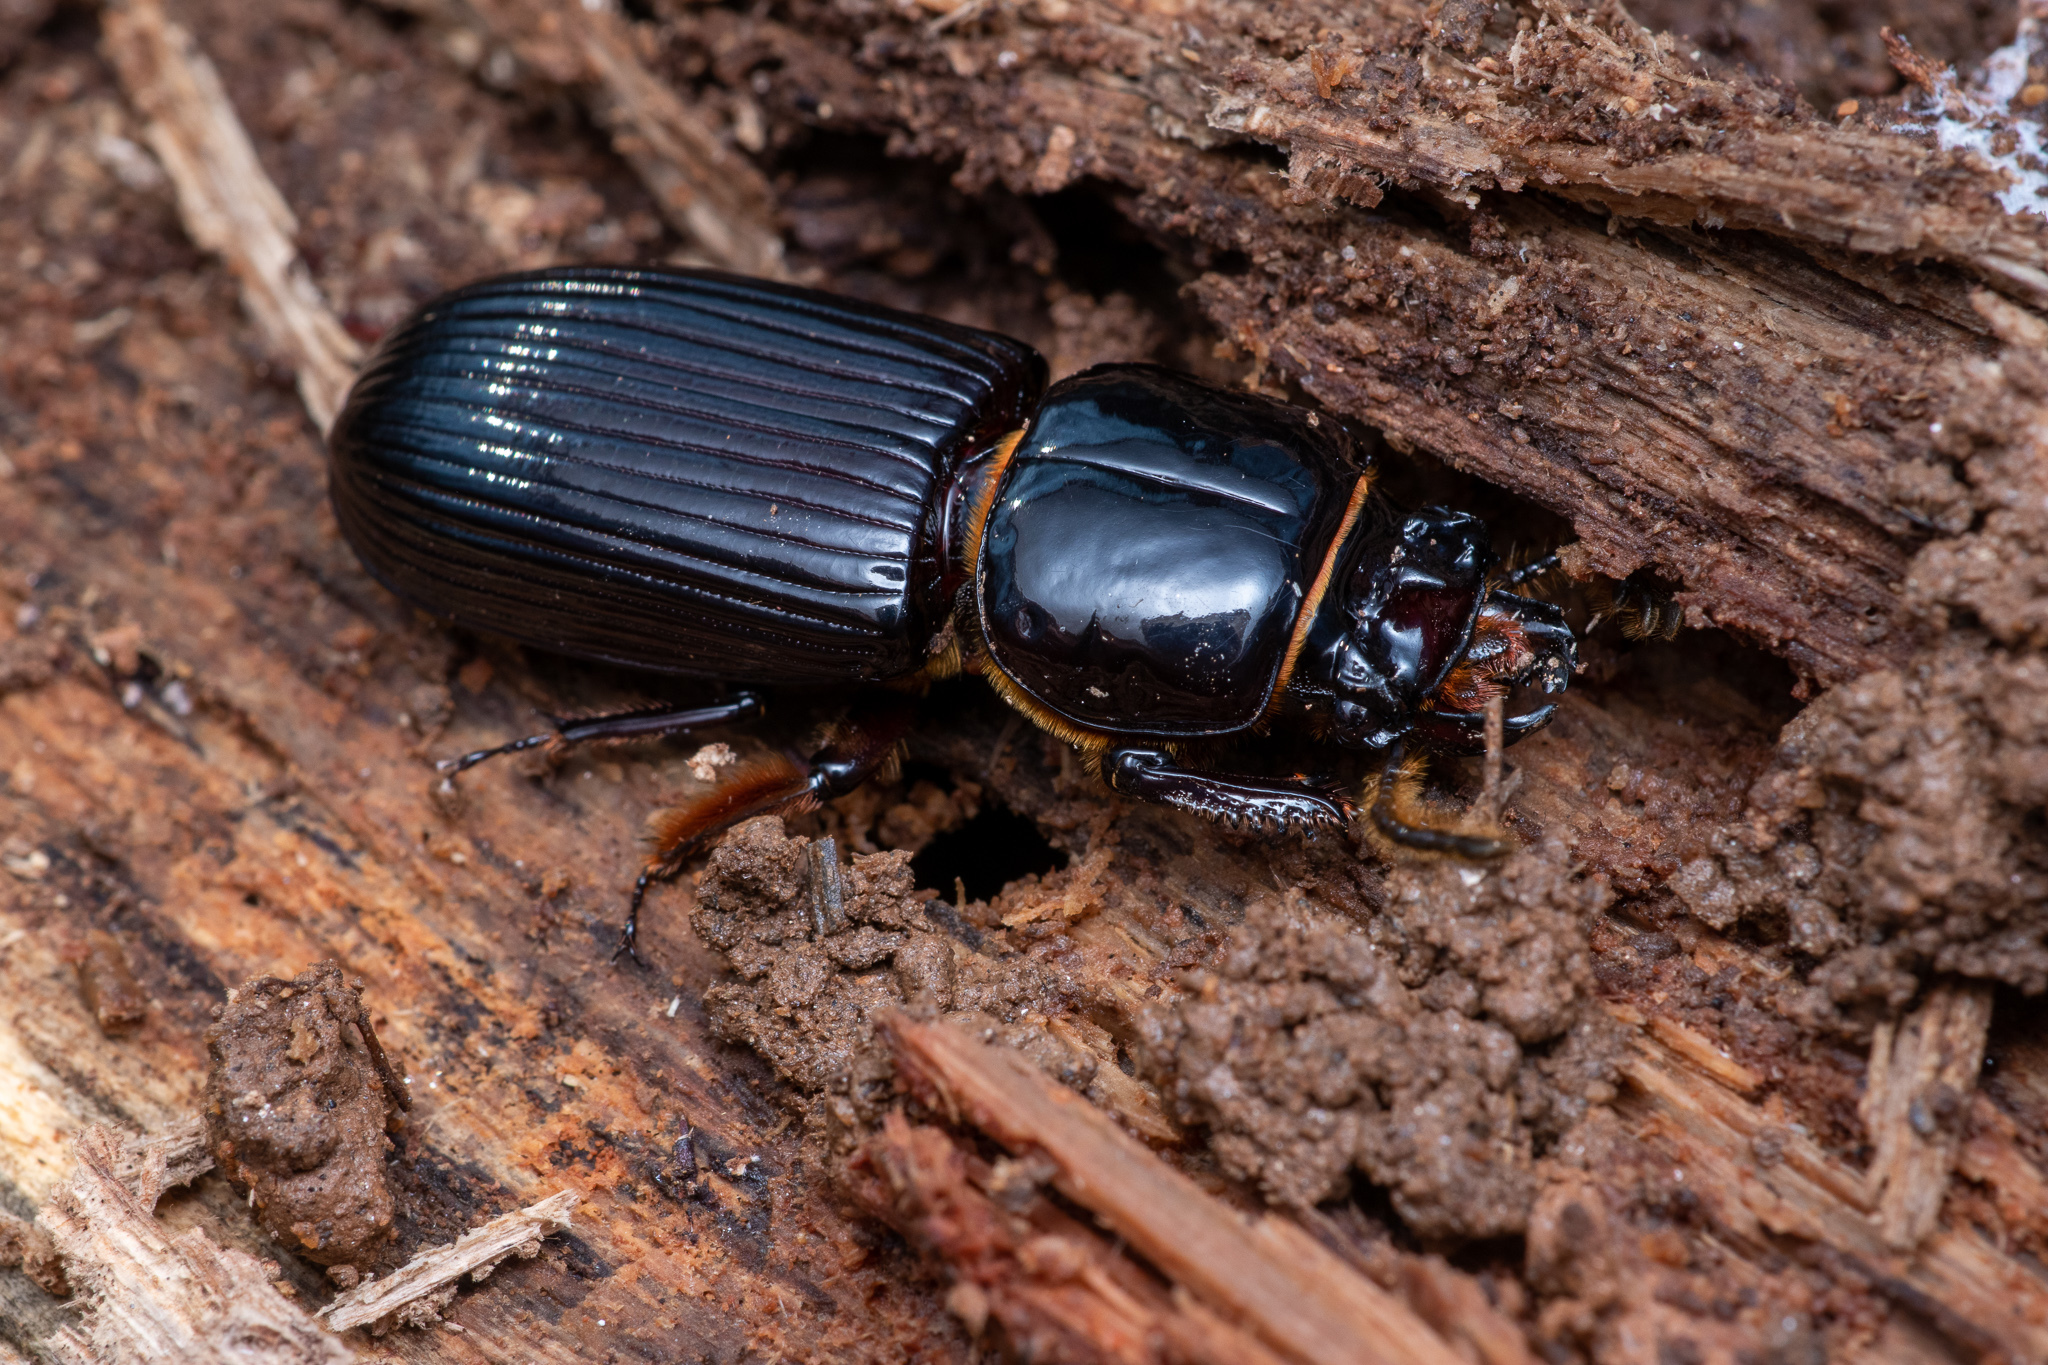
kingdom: Animalia
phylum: Arthropoda
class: Insecta
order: Coleoptera
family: Passalidae
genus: Odontotaenius
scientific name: Odontotaenius disjunctus
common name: Patent leather beetle
